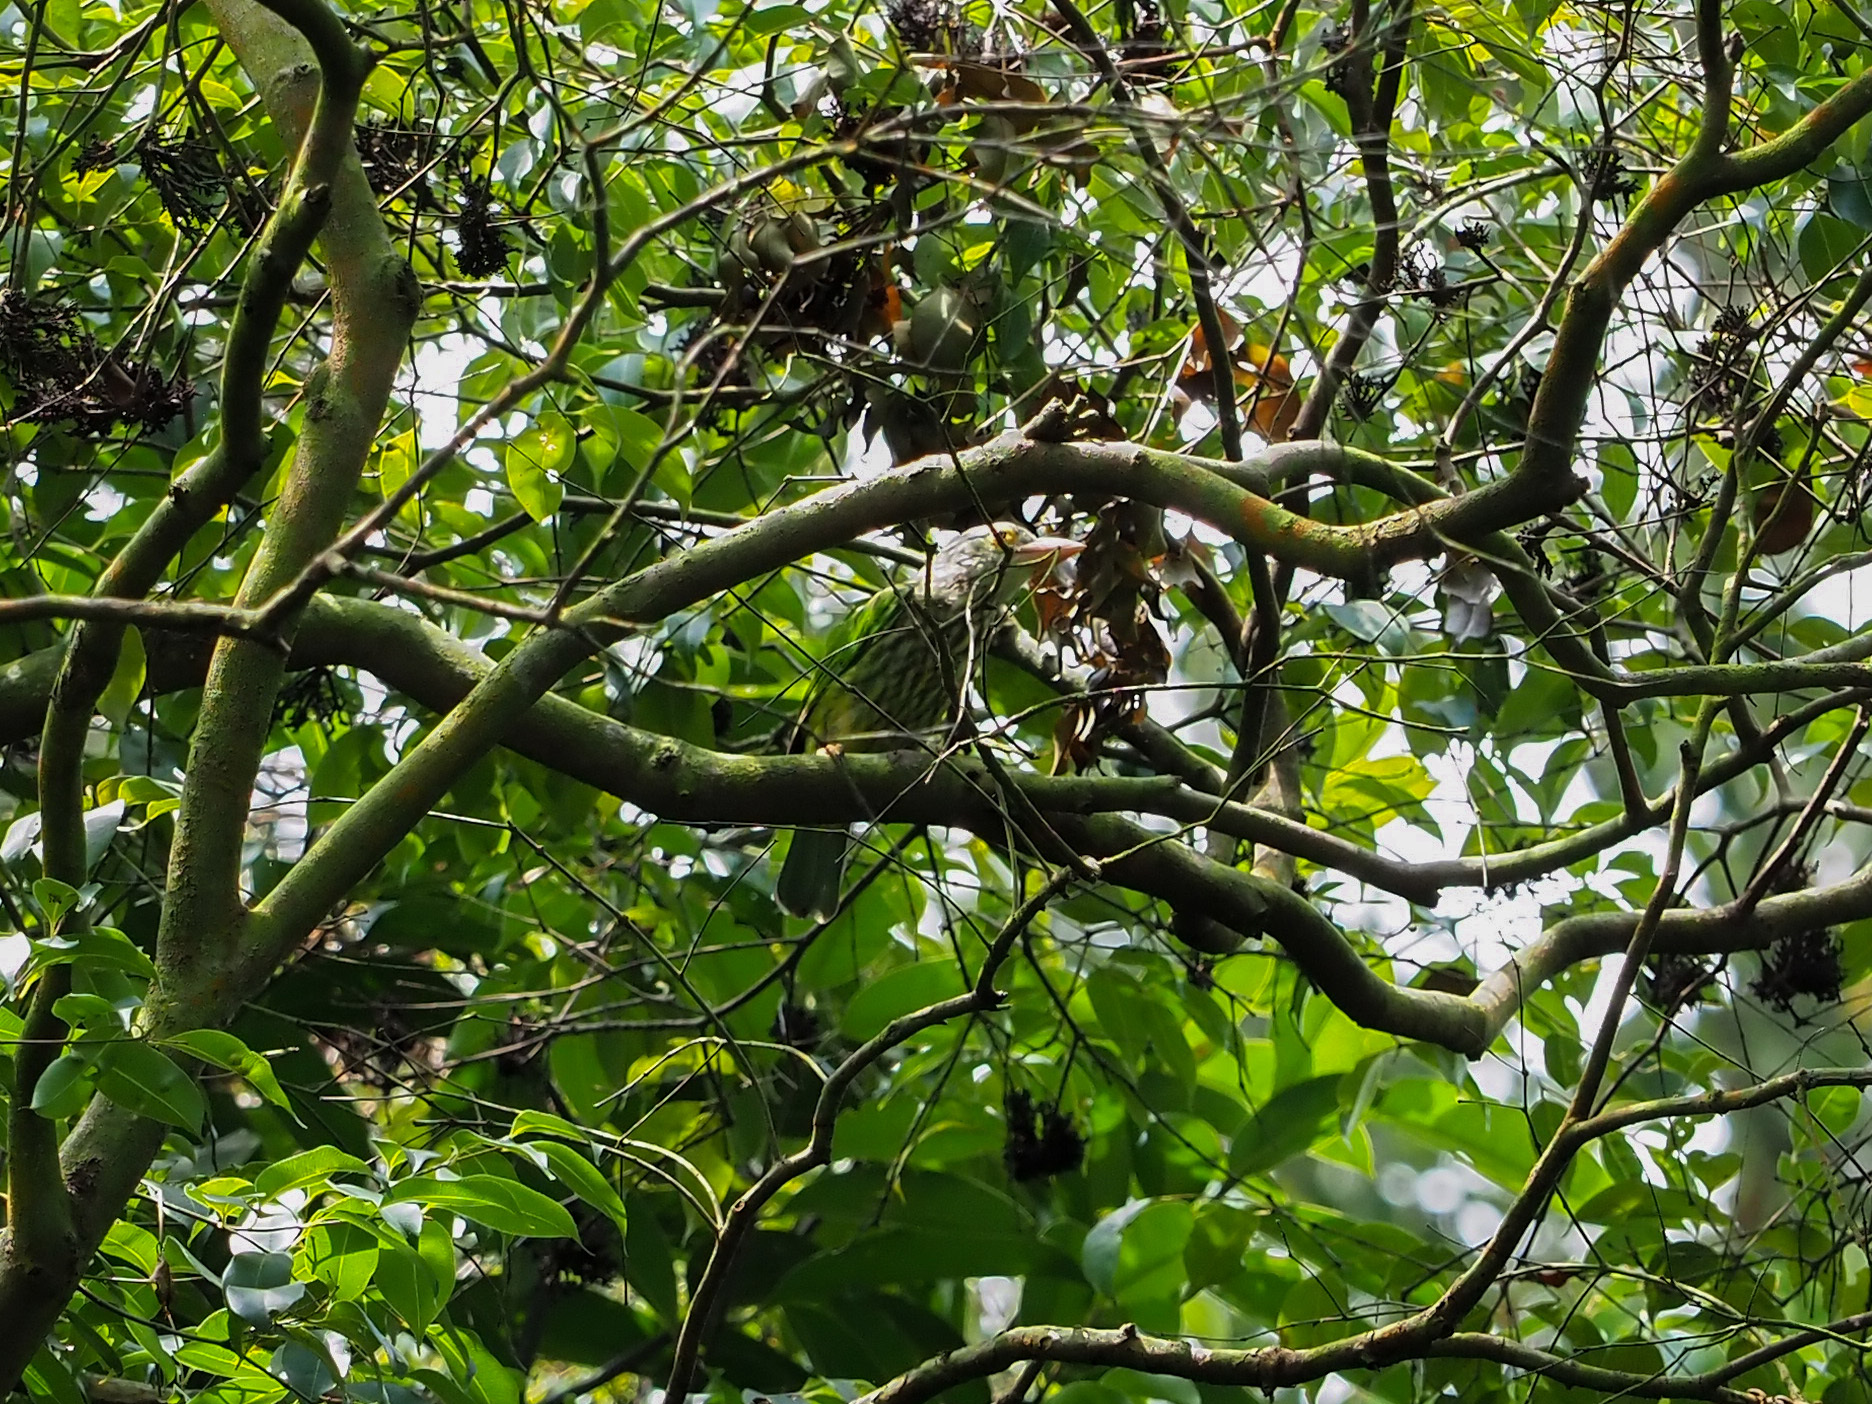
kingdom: Animalia
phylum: Chordata
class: Aves
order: Piciformes
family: Megalaimidae
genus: Psilopogon
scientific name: Psilopogon lineatus
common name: Lineated barbet
